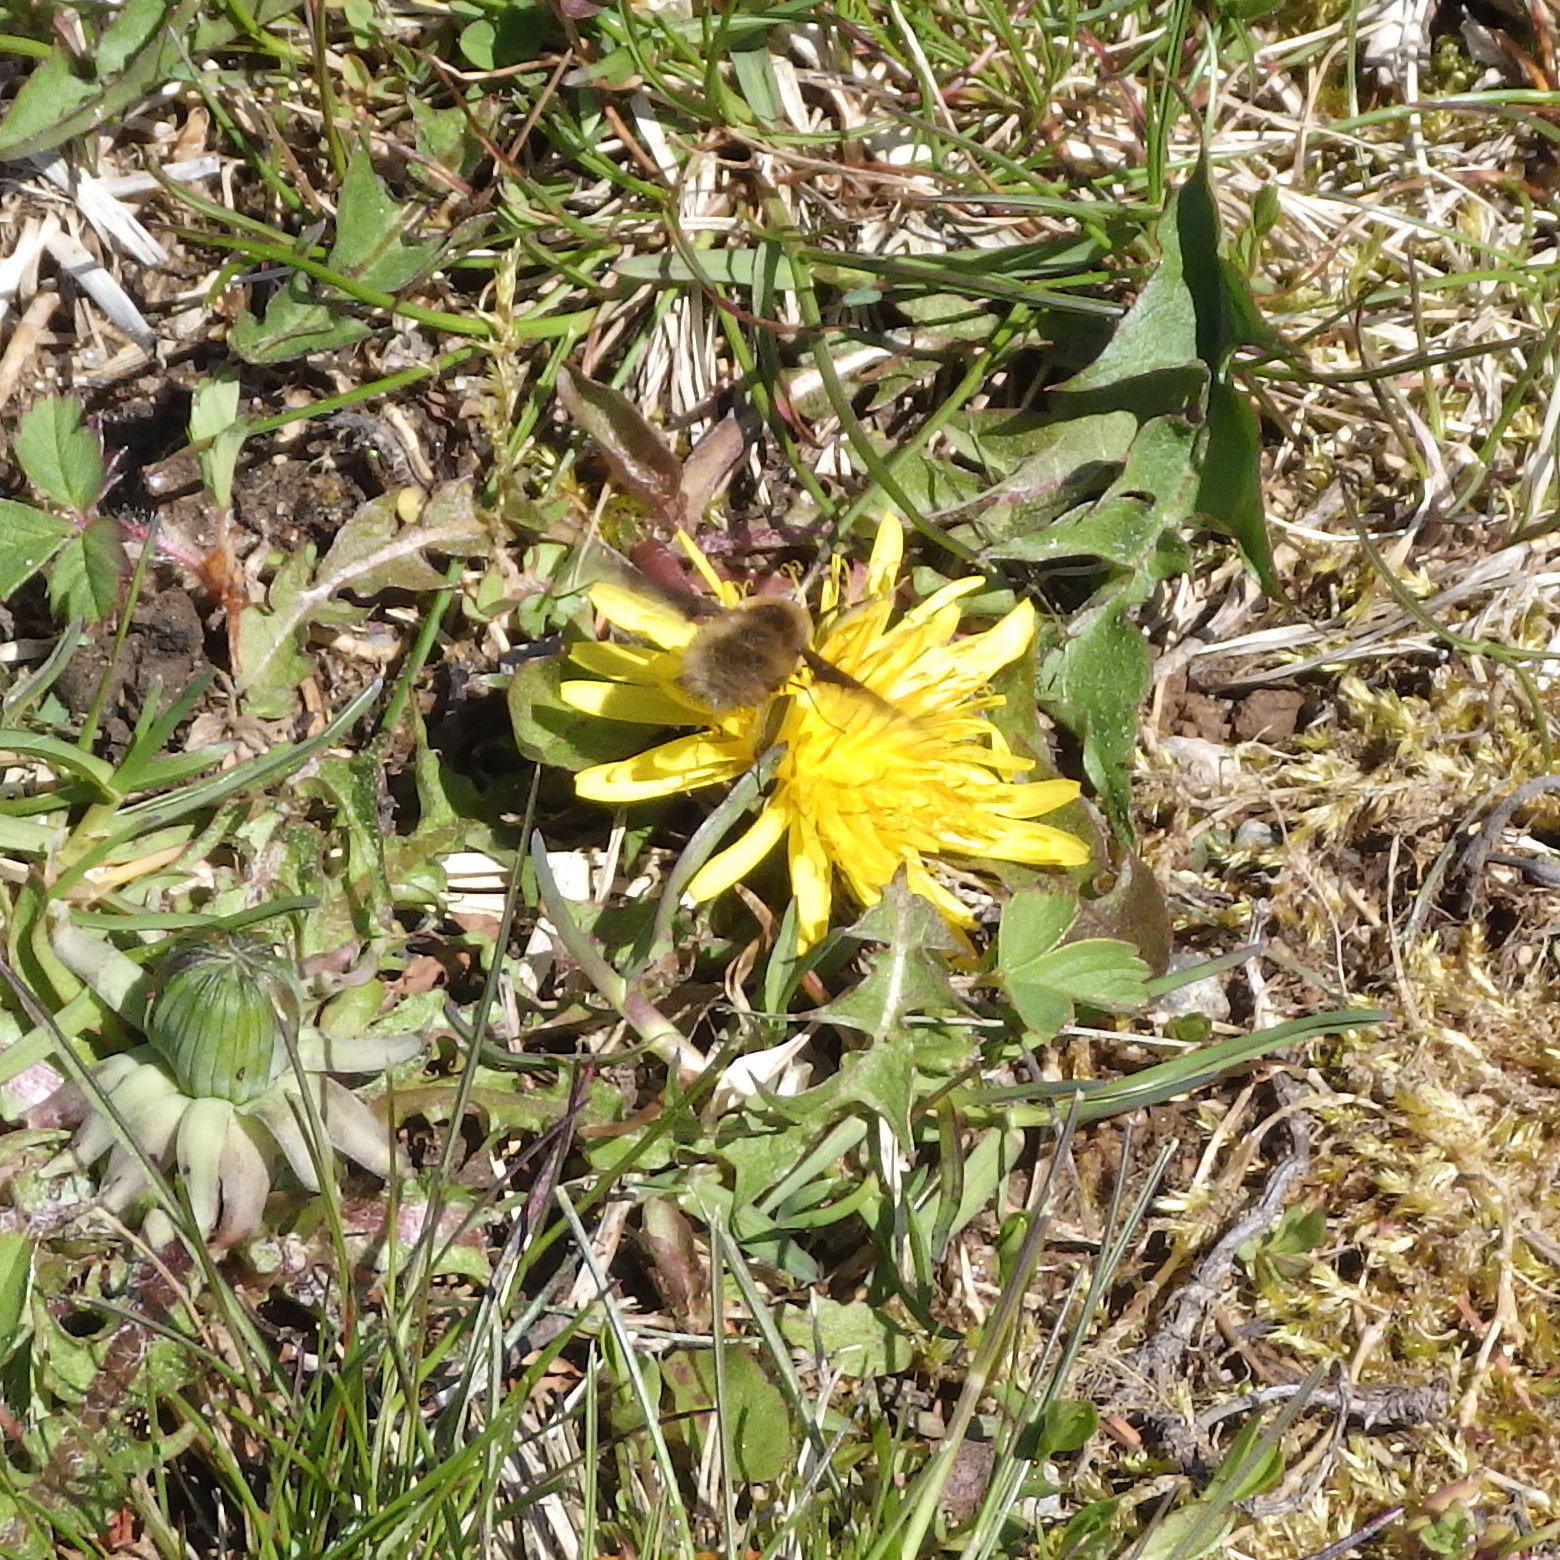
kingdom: Animalia
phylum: Arthropoda
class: Insecta
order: Diptera
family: Bombyliidae
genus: Bombylius
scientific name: Bombylius major
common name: Bee fly
